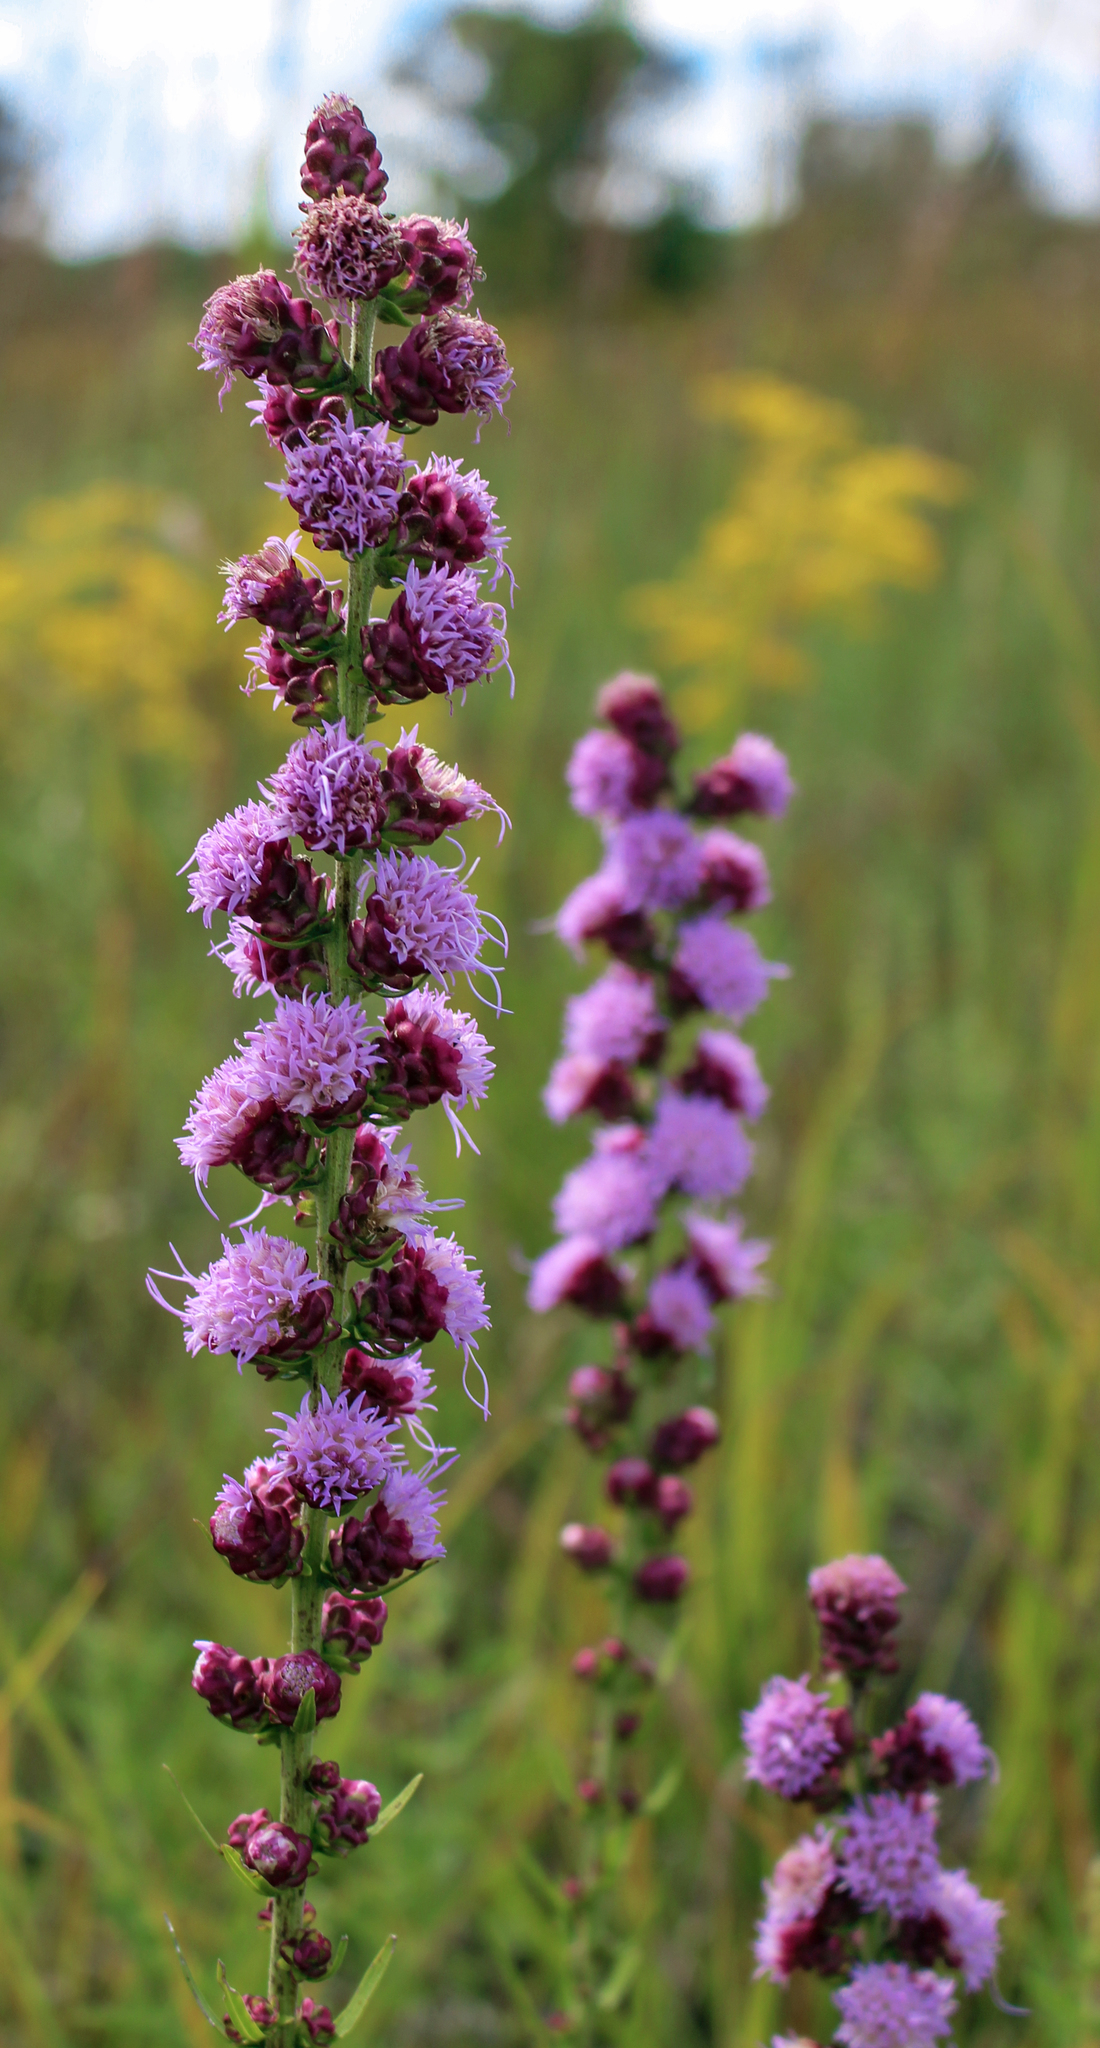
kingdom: Plantae
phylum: Tracheophyta
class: Magnoliopsida
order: Asterales
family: Asteraceae
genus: Liatris
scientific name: Liatris aspera
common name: Lacerate blazing-star
